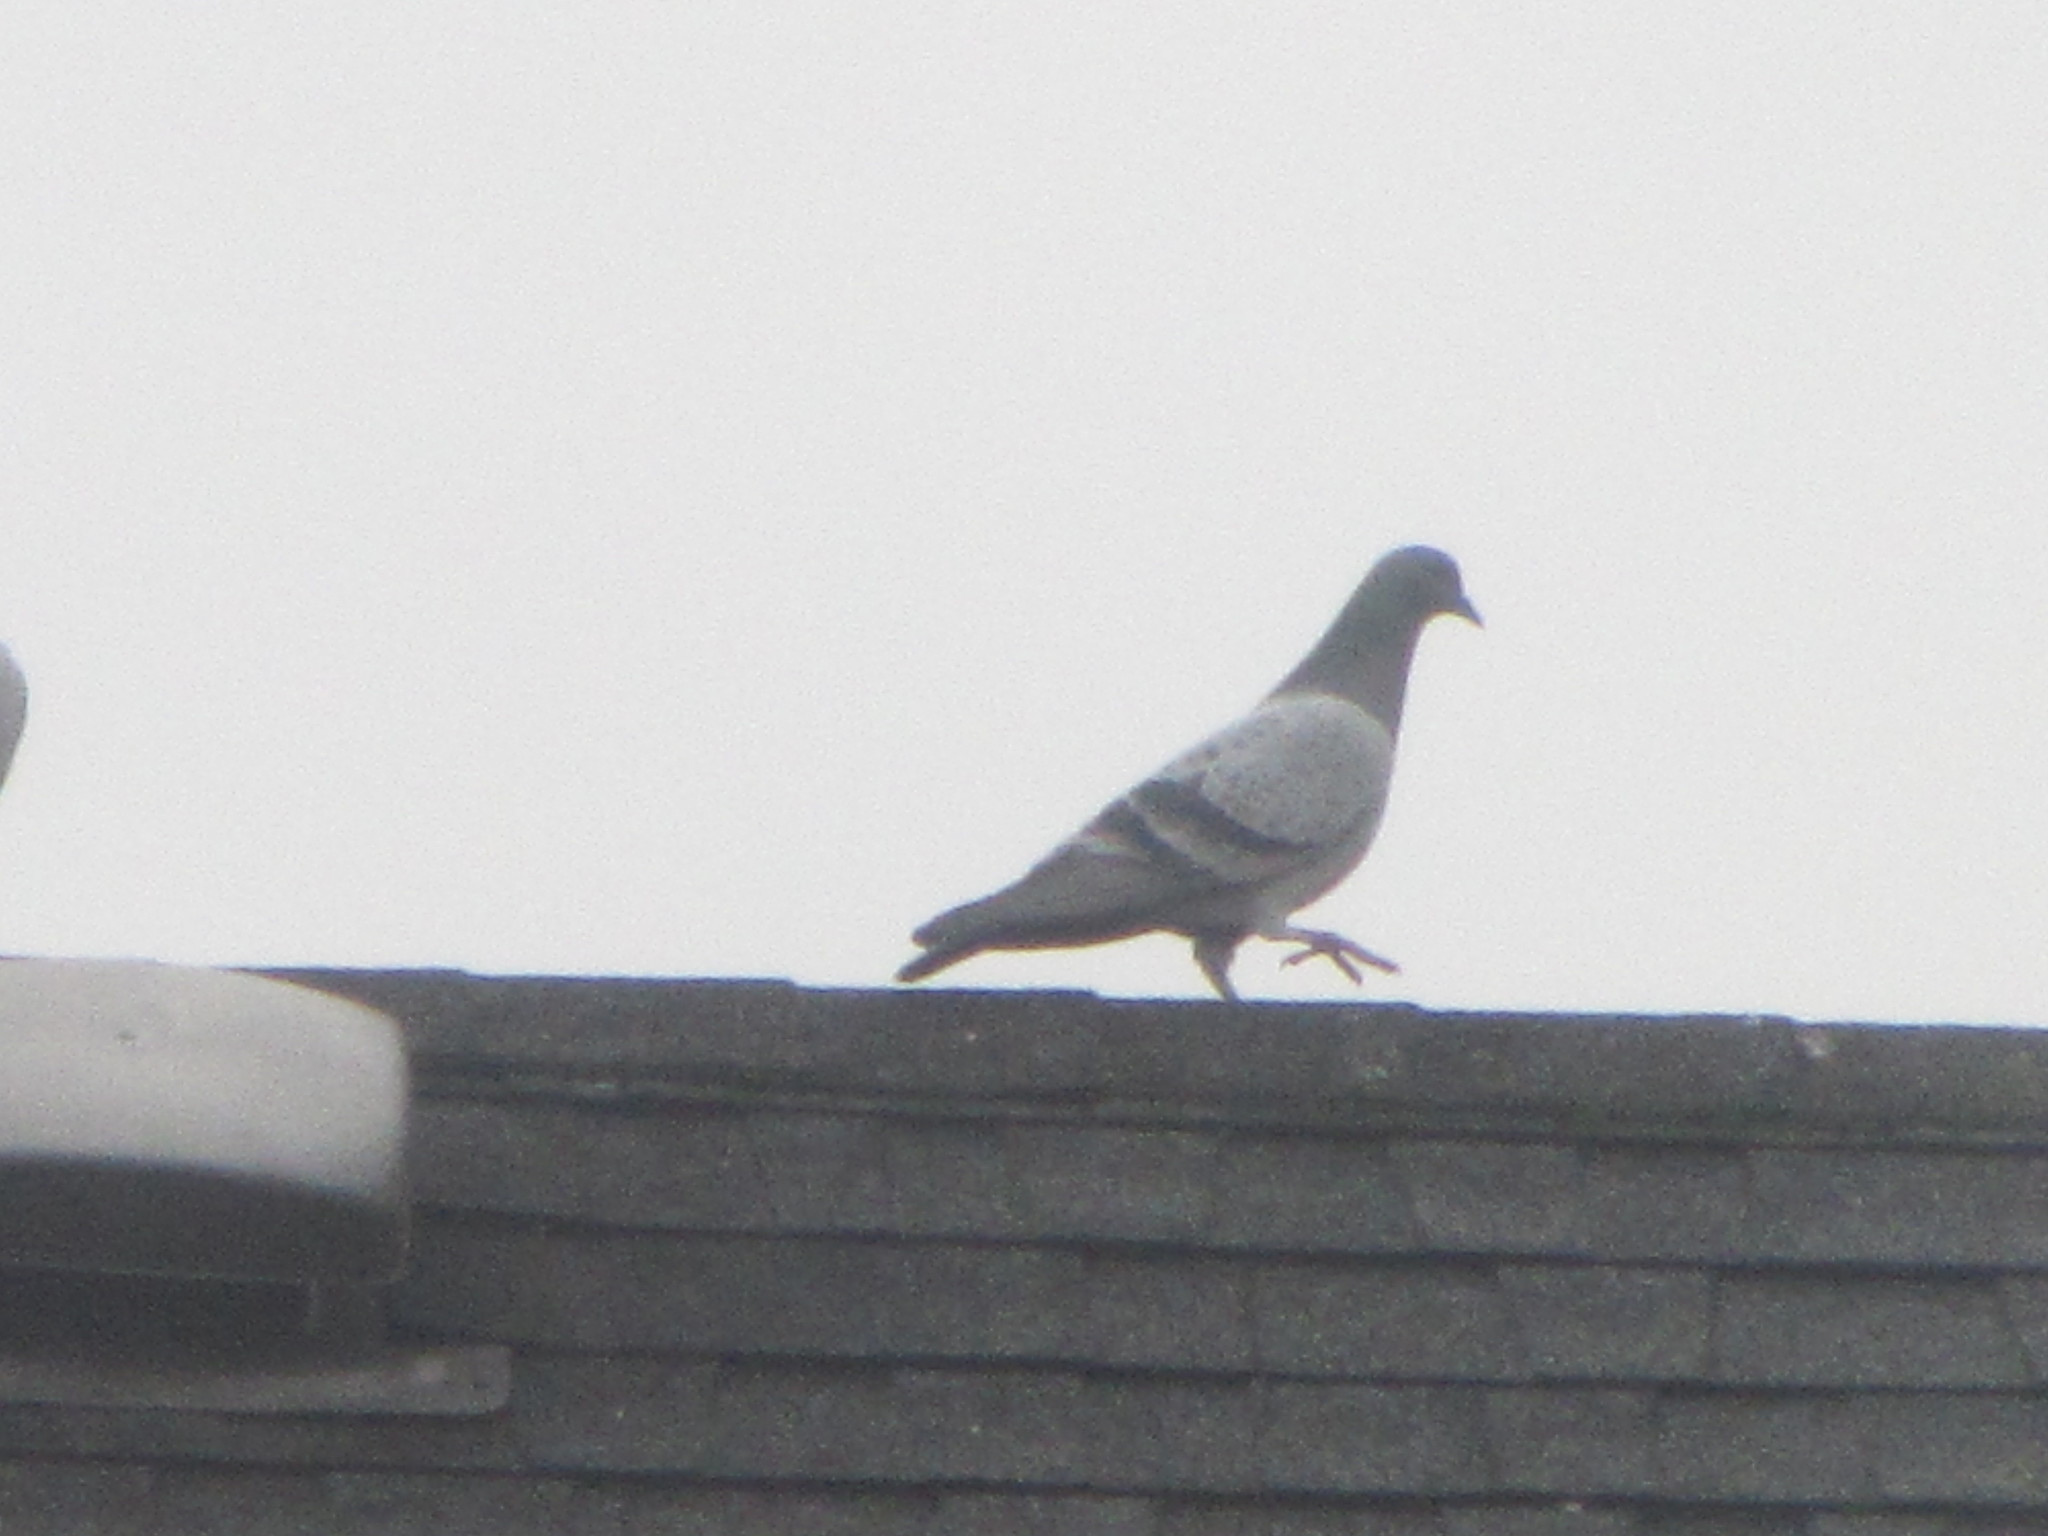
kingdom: Animalia
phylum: Chordata
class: Aves
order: Columbiformes
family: Columbidae
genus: Columba
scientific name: Columba livia
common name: Rock pigeon
